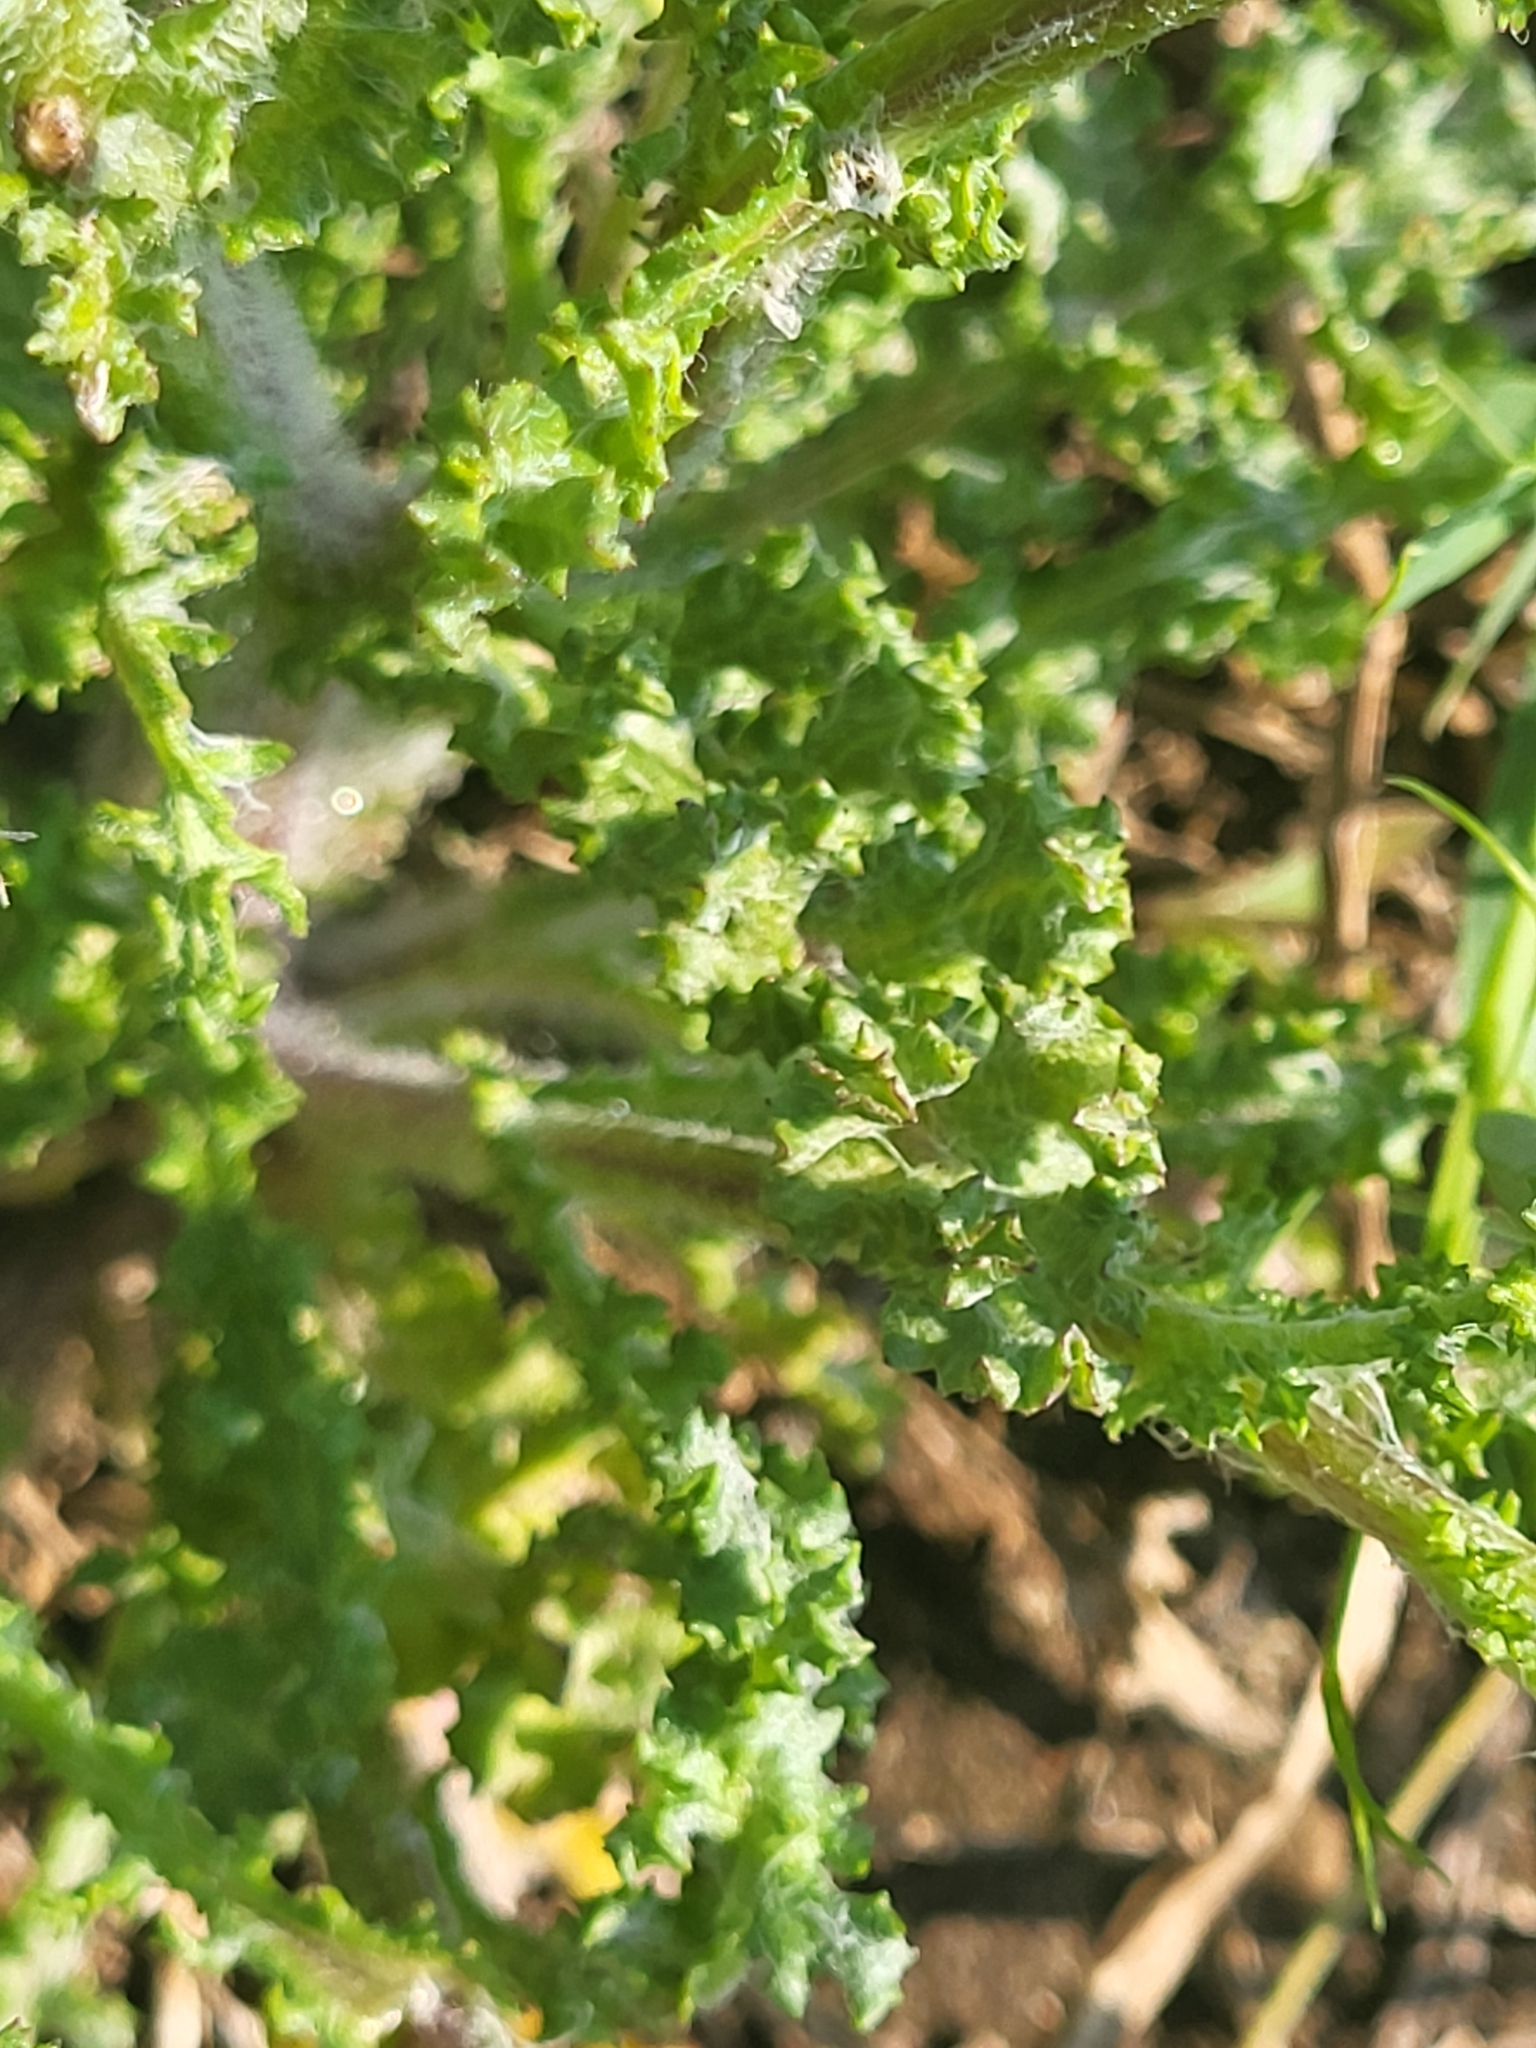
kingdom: Plantae
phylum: Tracheophyta
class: Magnoliopsida
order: Asterales
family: Asteraceae
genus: Senecio
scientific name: Senecio vernalis
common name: Eastern groundsel
